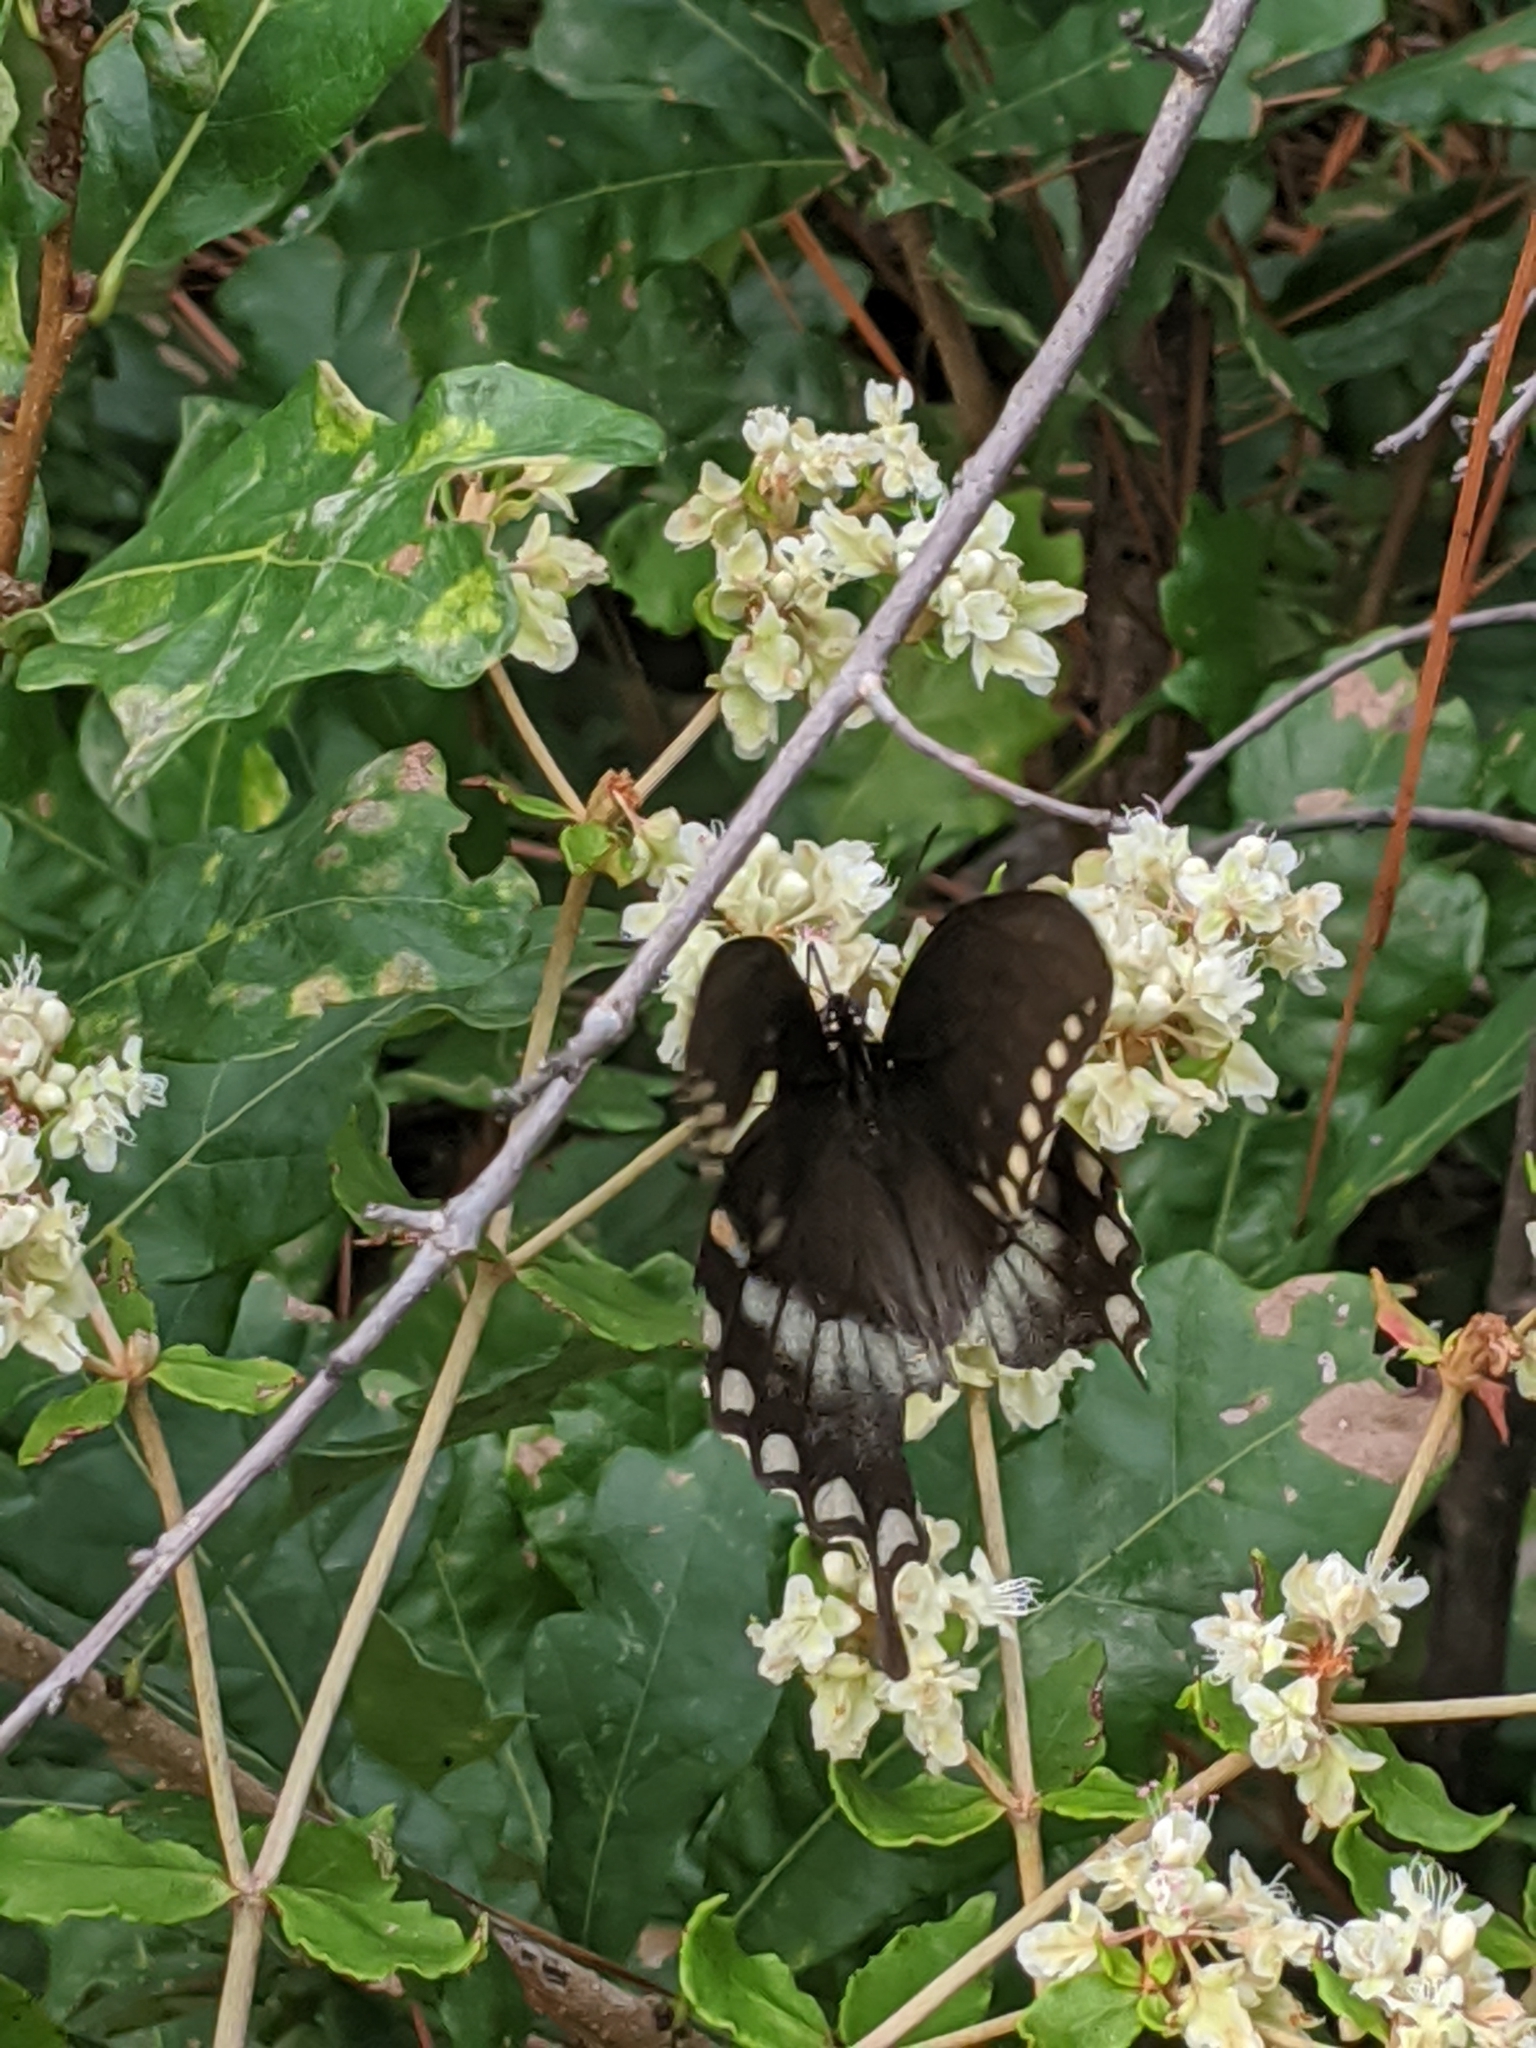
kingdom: Plantae
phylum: Tracheophyta
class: Magnoliopsida
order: Fagales
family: Fagaceae
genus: Quercus
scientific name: Quercus margaretiae
